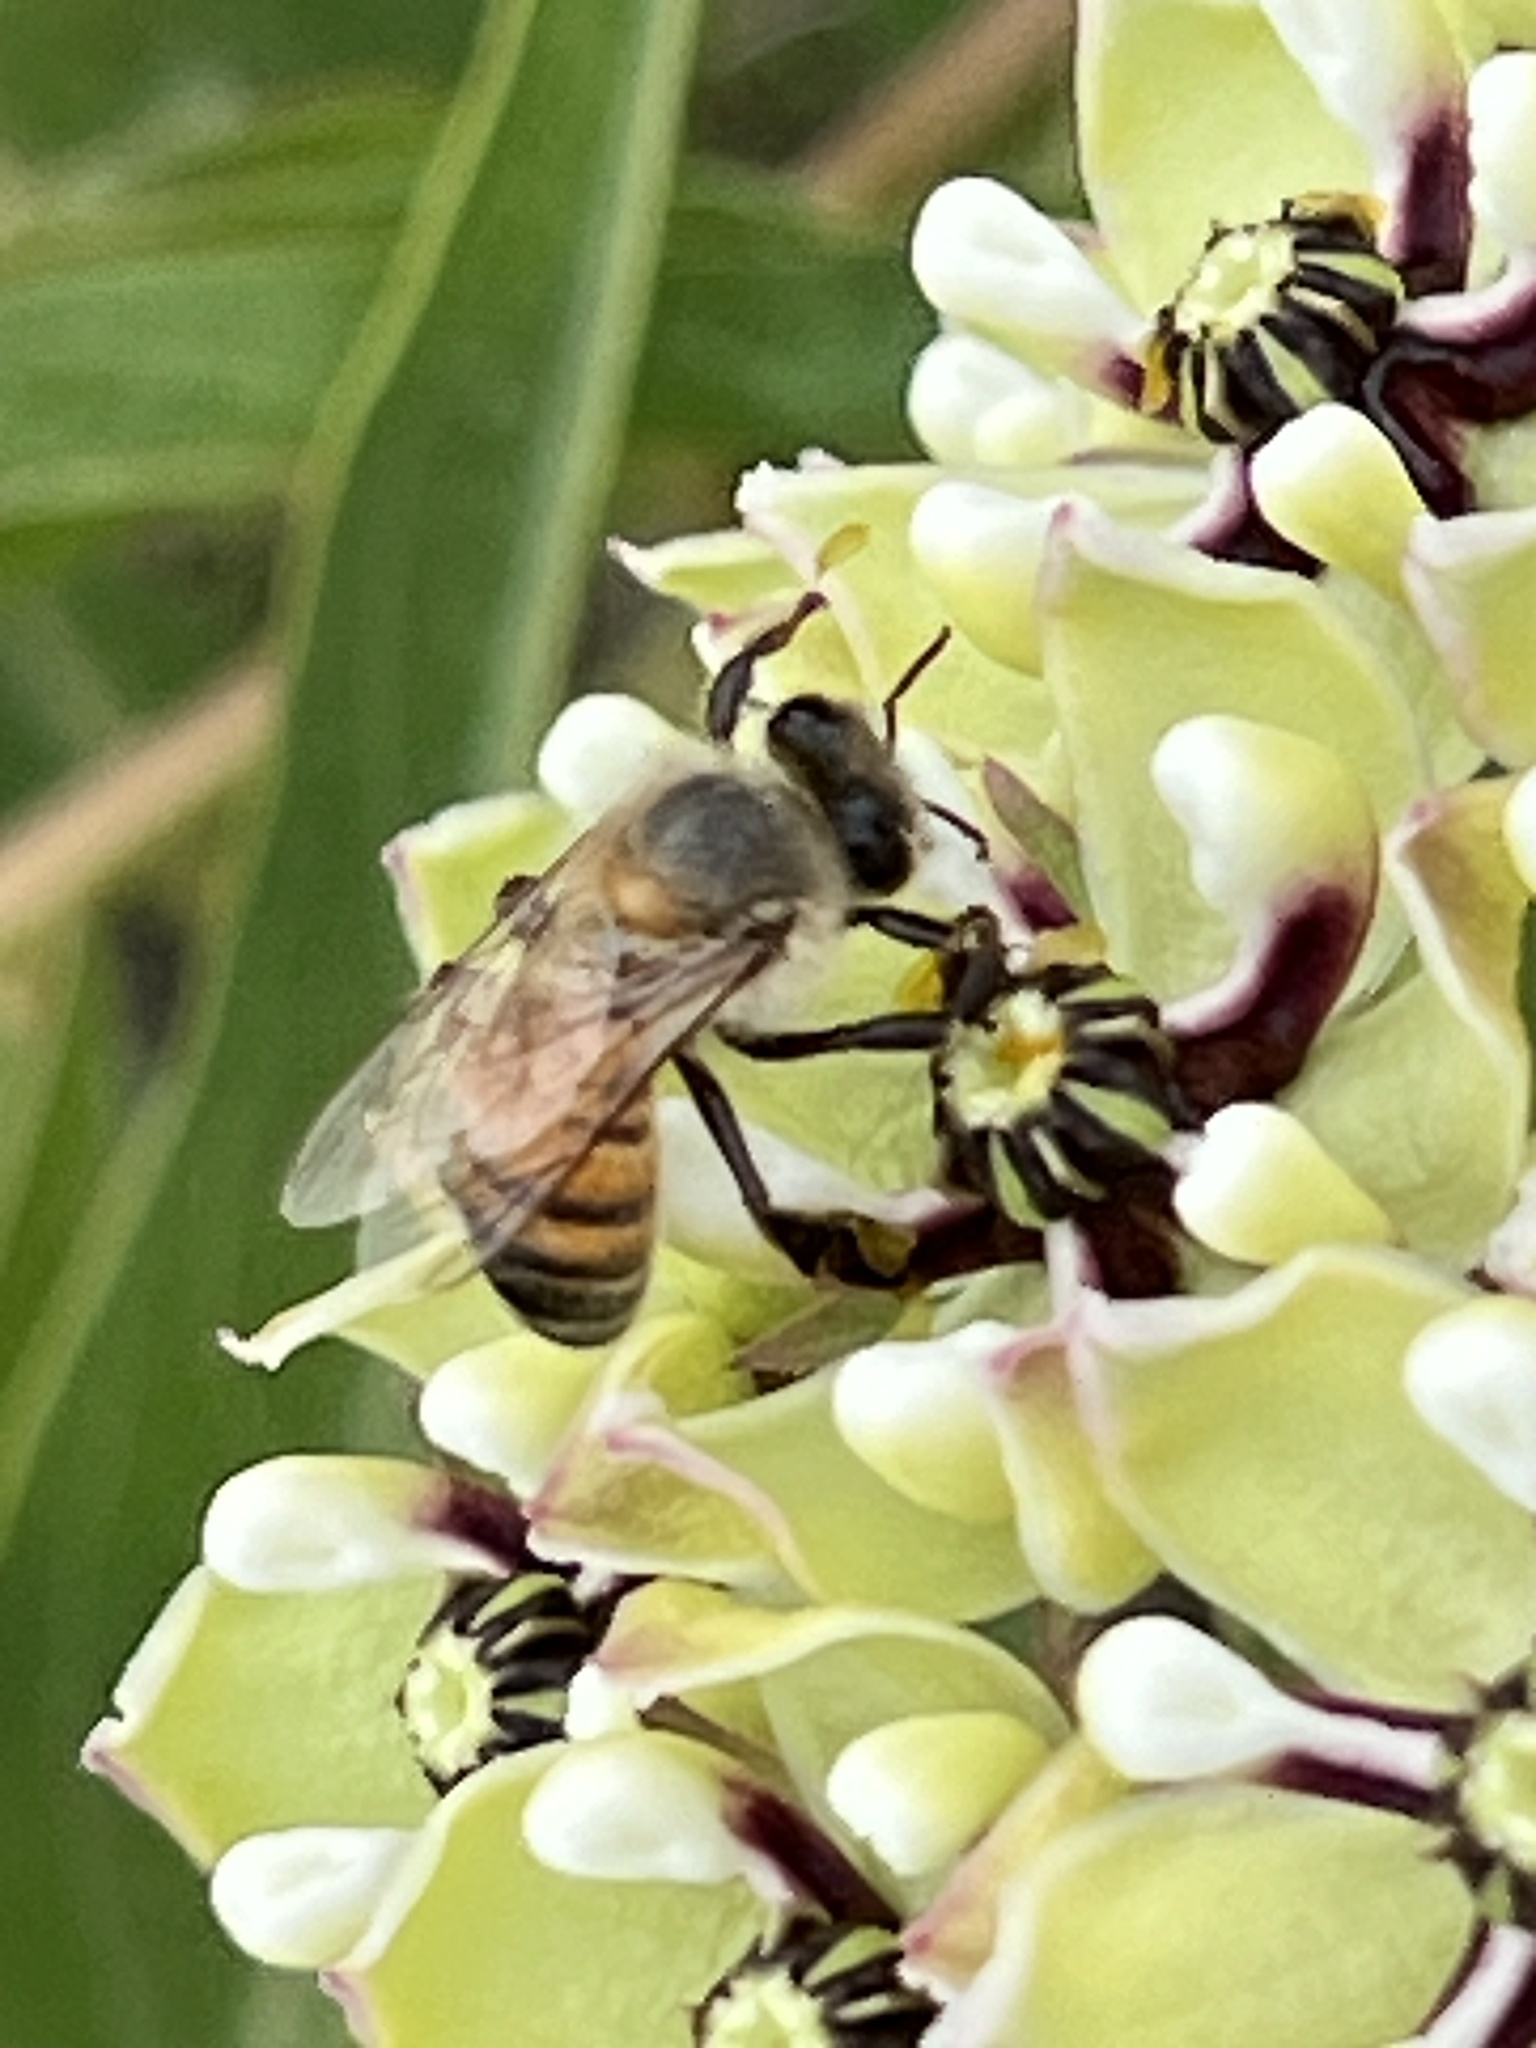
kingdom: Animalia
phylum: Arthropoda
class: Insecta
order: Hymenoptera
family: Apidae
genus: Apis
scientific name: Apis mellifera
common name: Honey bee
